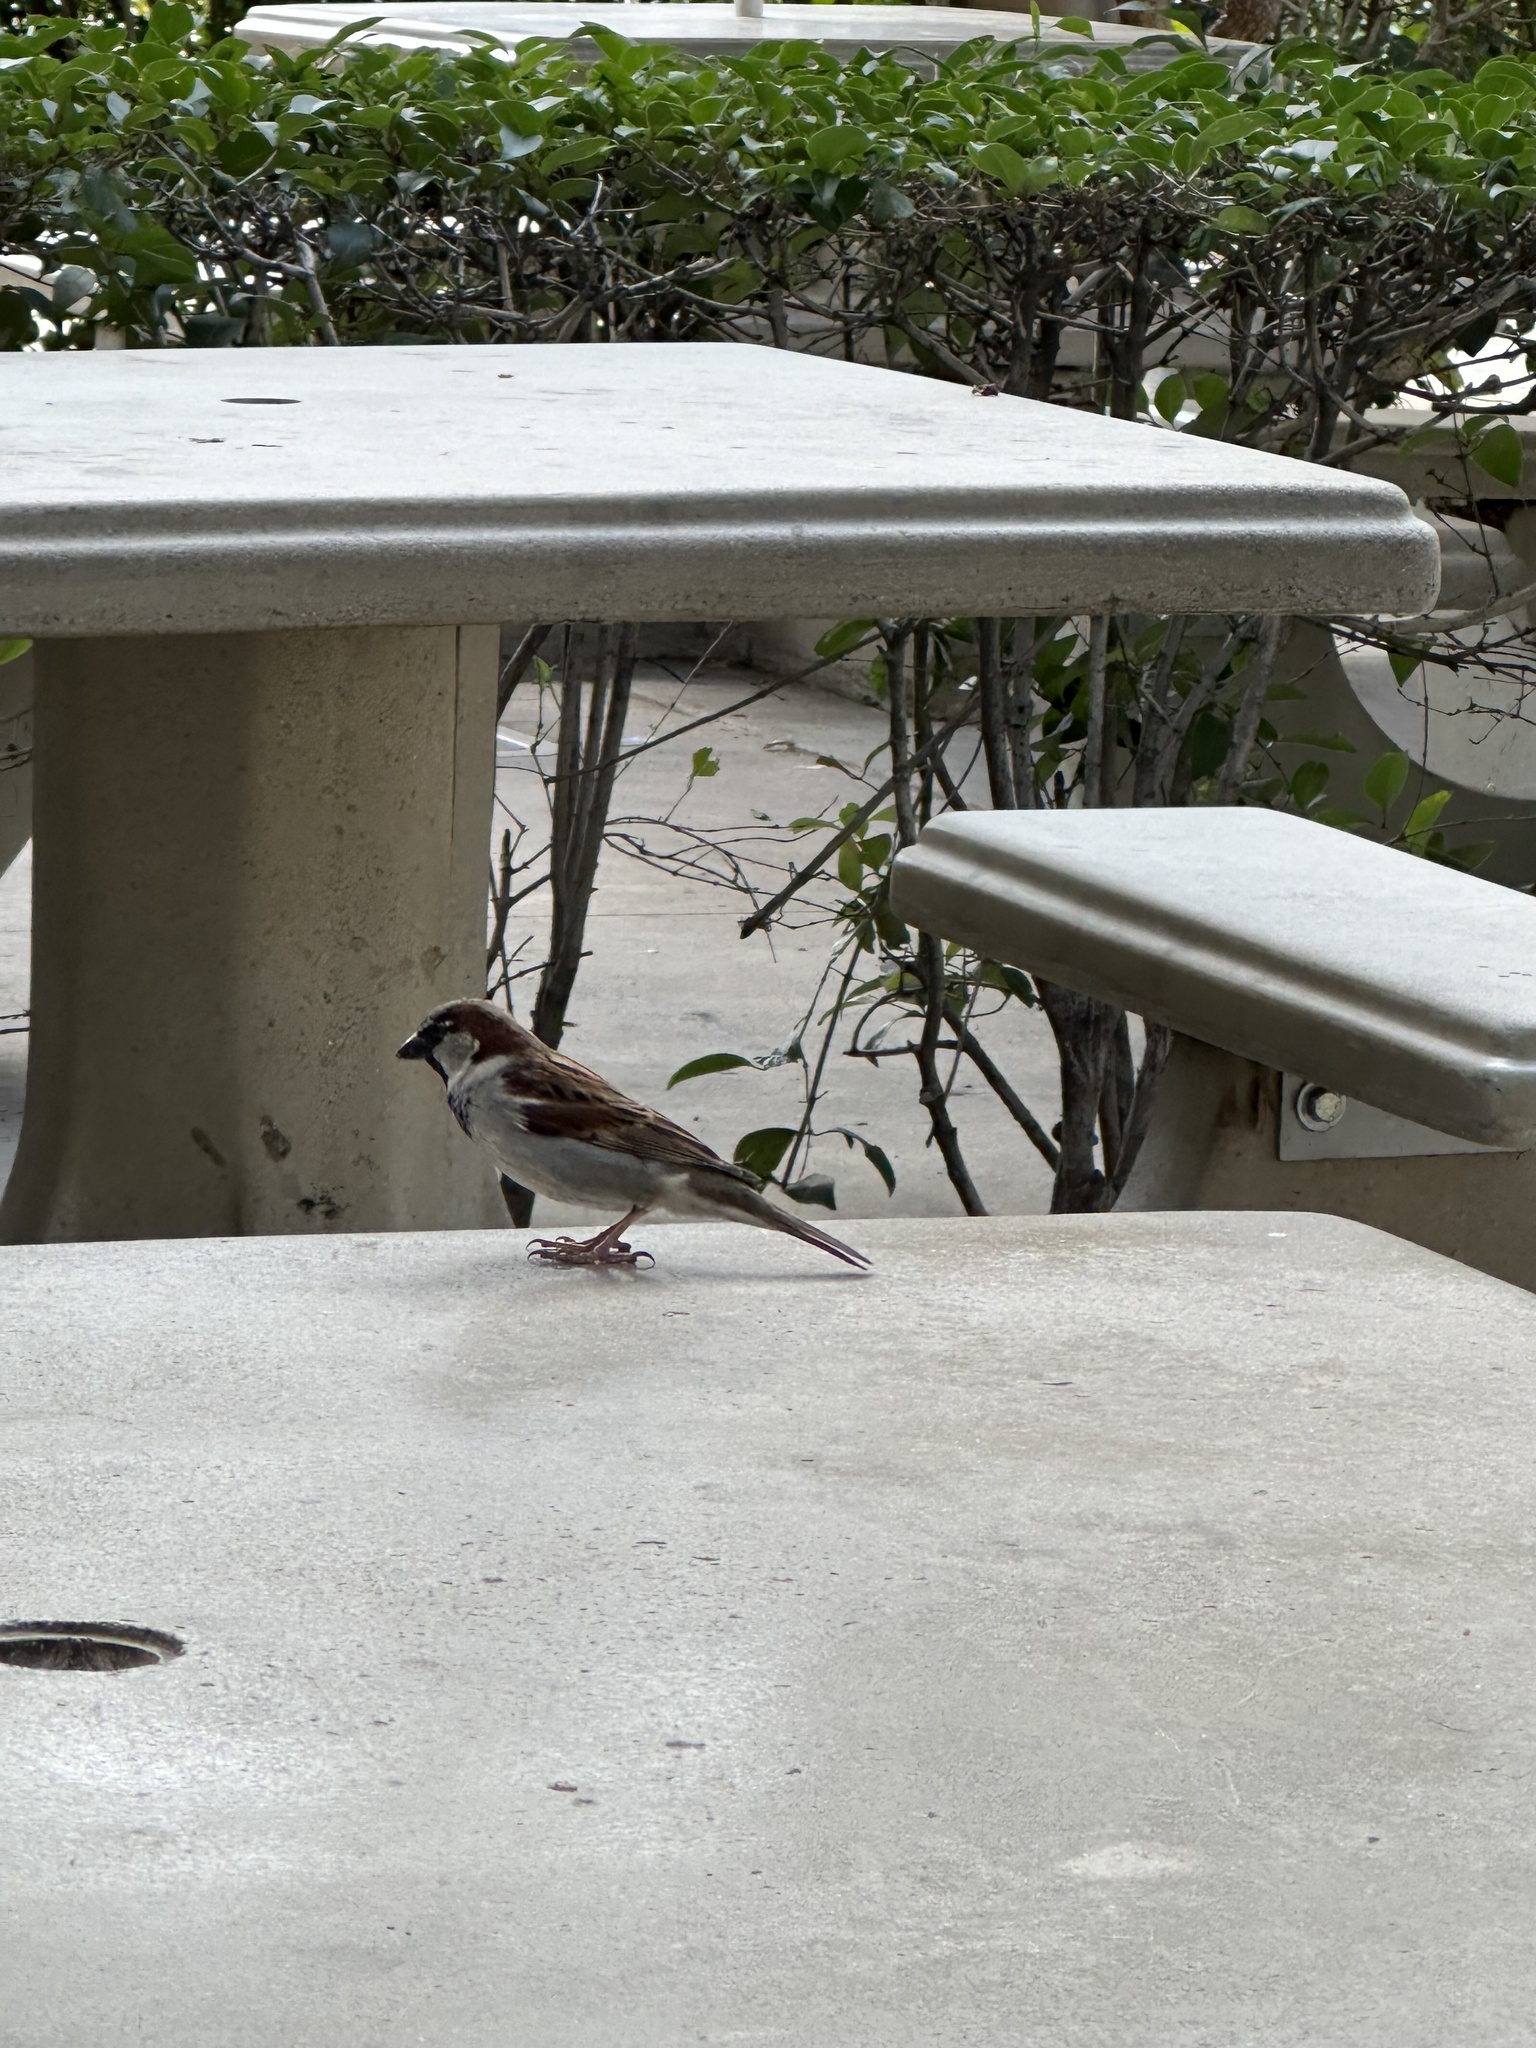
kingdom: Animalia
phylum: Chordata
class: Aves
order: Passeriformes
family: Passeridae
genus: Passer
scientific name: Passer domesticus
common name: House sparrow
